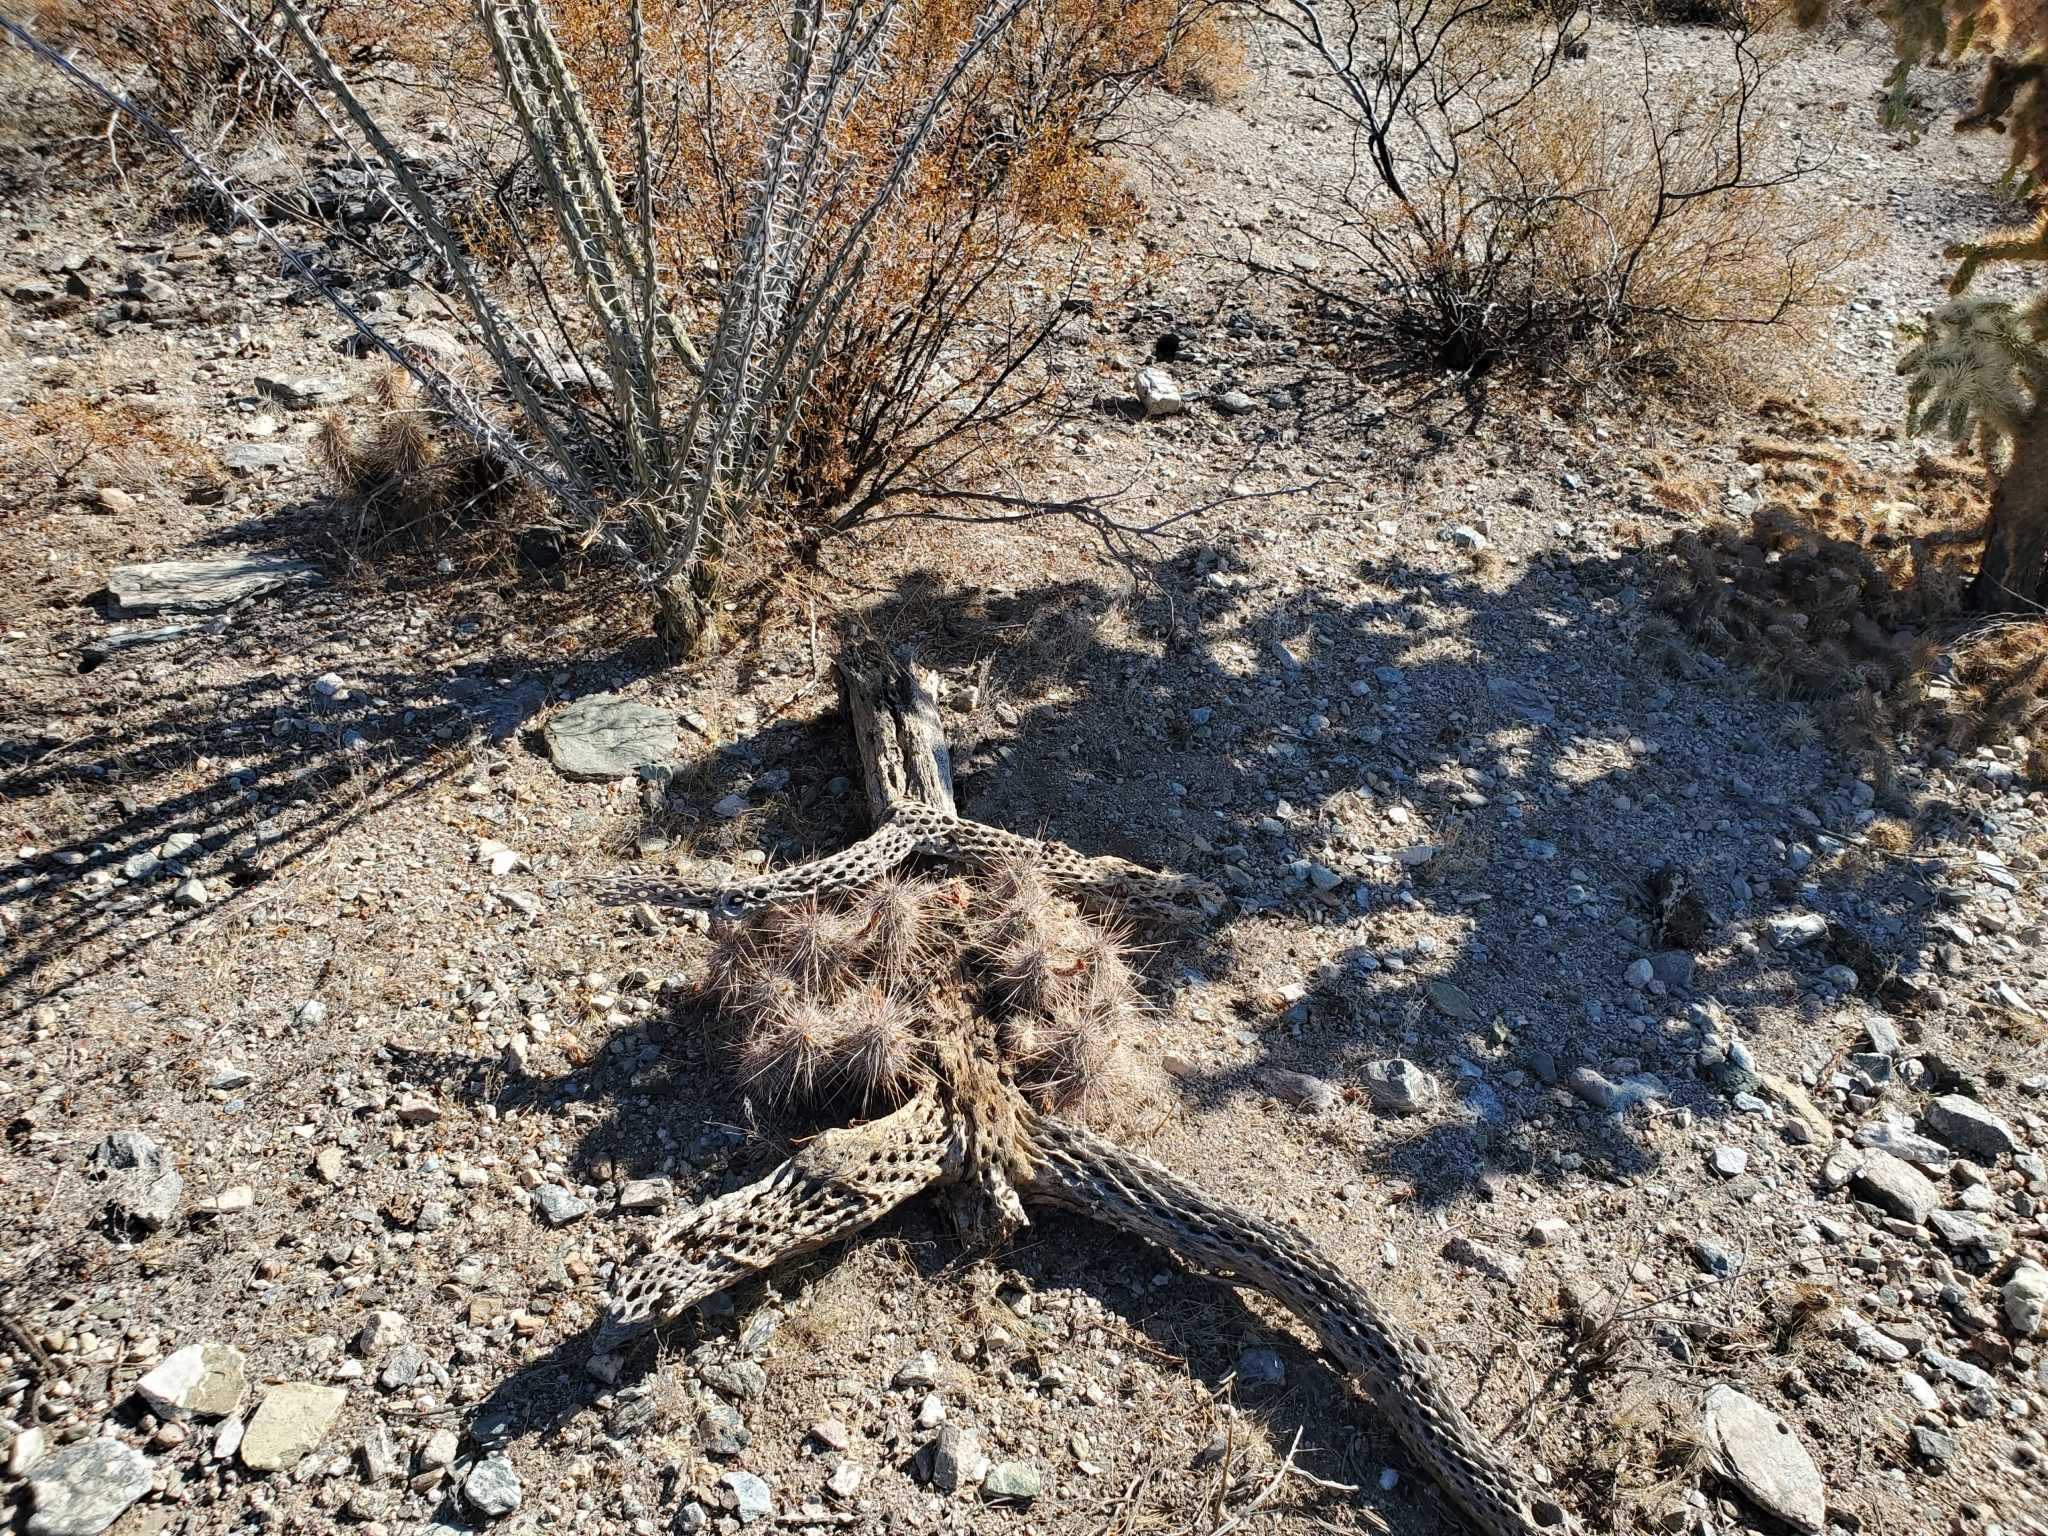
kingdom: Plantae
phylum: Tracheophyta
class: Magnoliopsida
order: Caryophyllales
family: Cactaceae
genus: Echinocereus
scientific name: Echinocereus engelmannii
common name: Engelmann's hedgehog cactus
